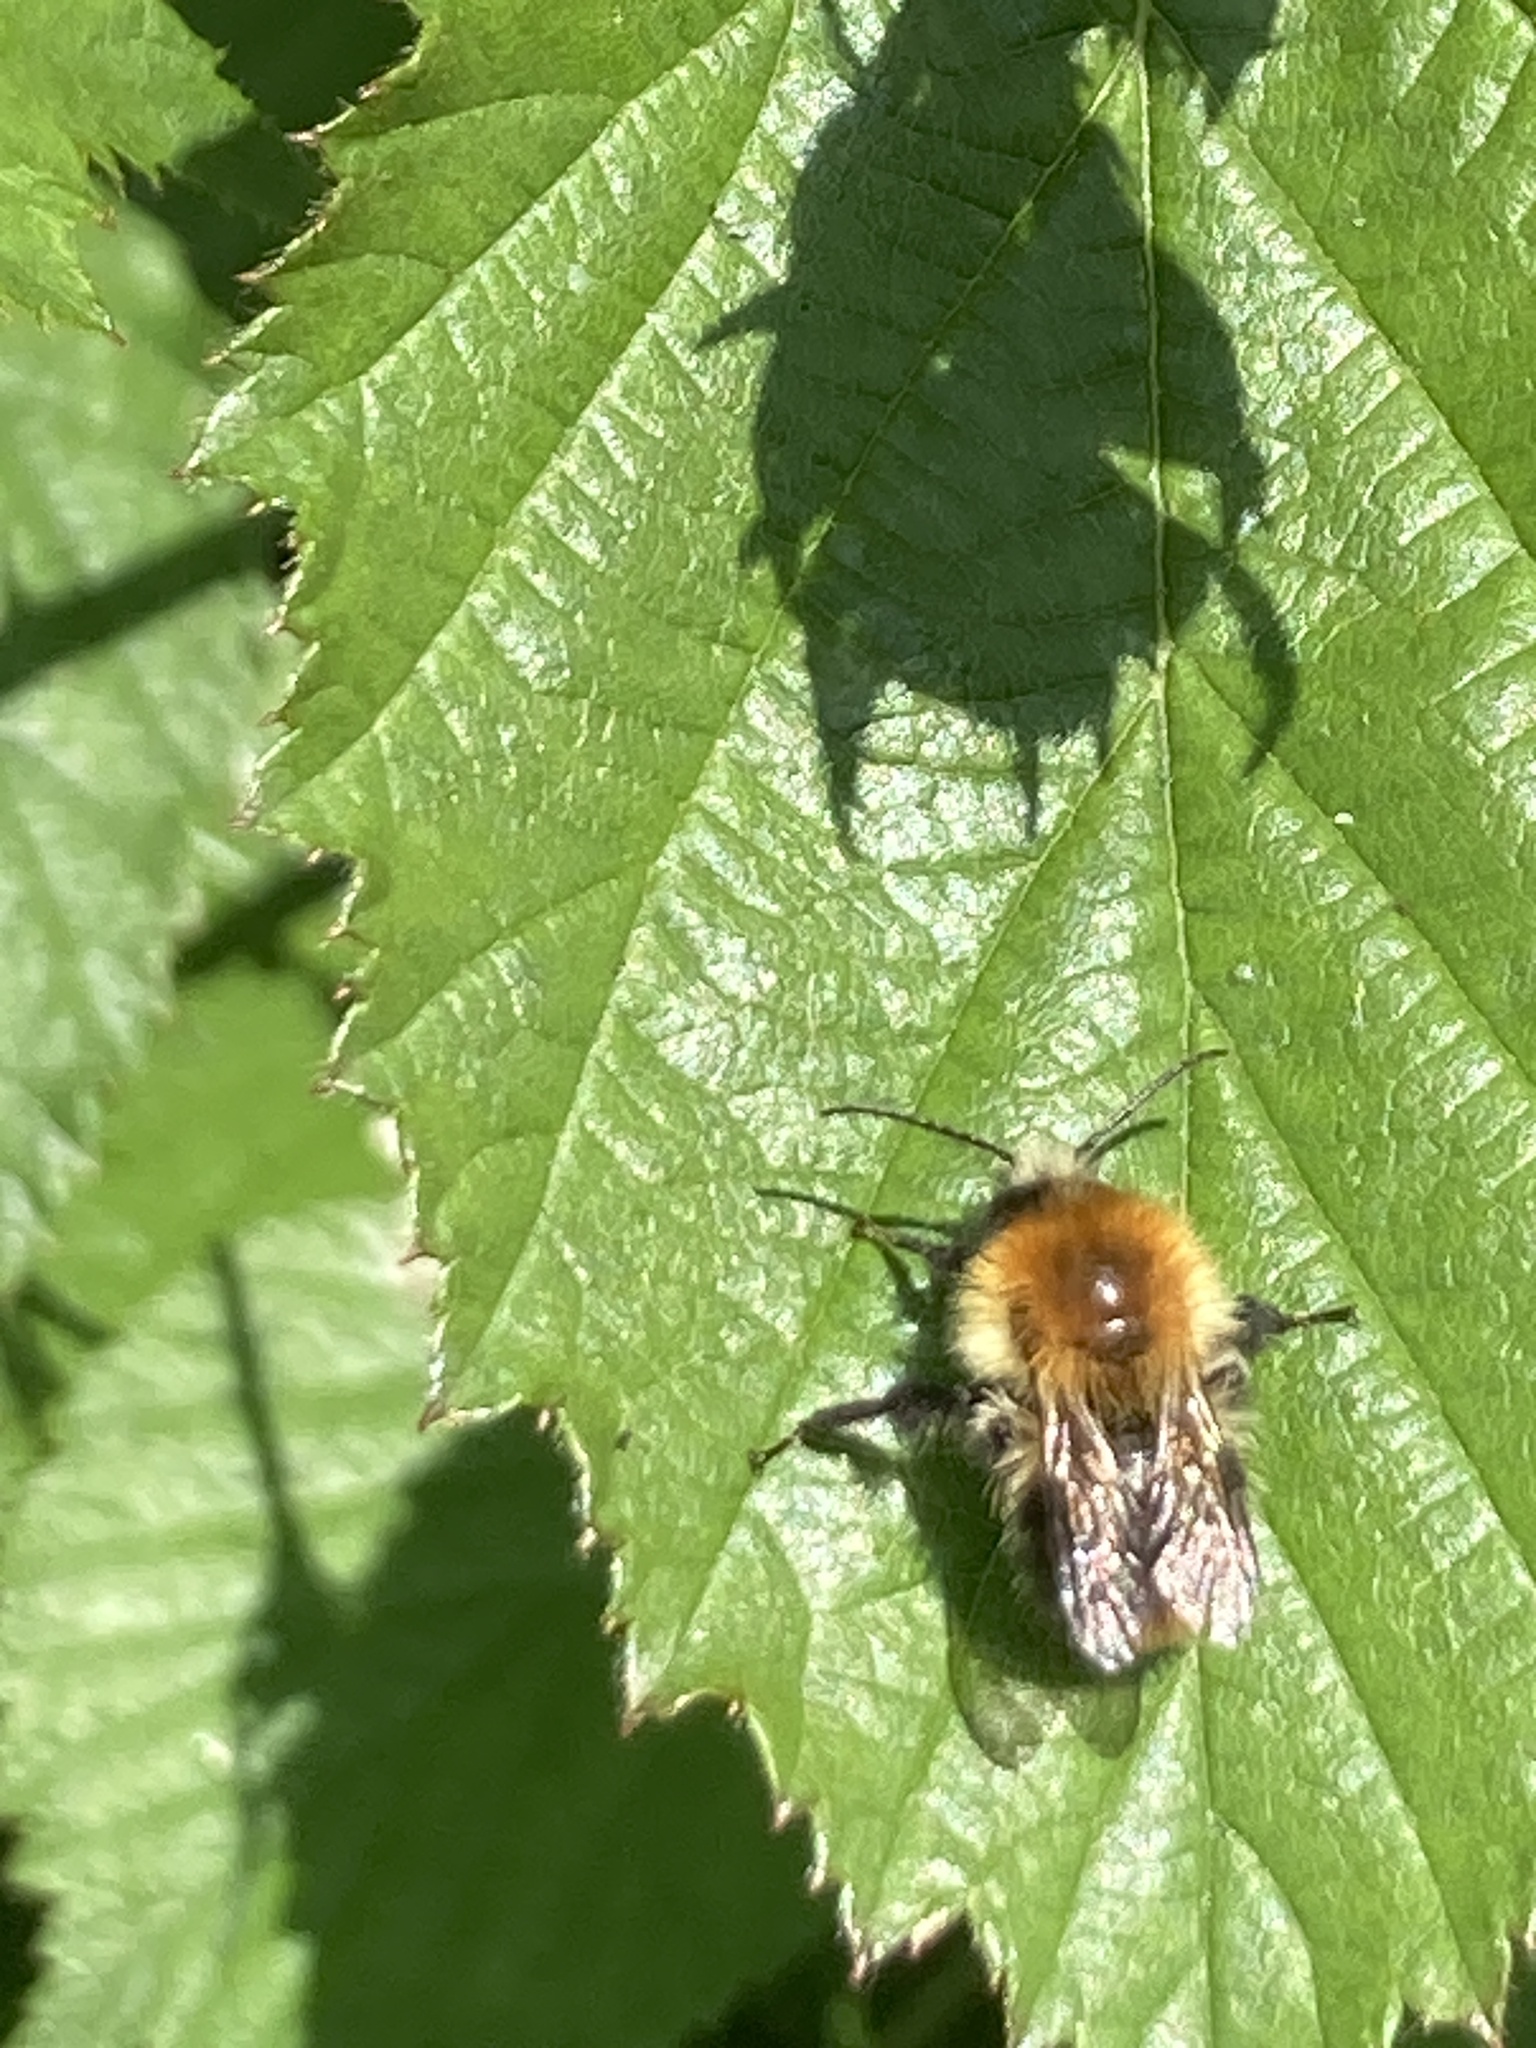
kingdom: Animalia
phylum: Arthropoda
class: Insecta
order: Hymenoptera
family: Apidae
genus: Bombus
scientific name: Bombus pascuorum
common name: Common carder bee
